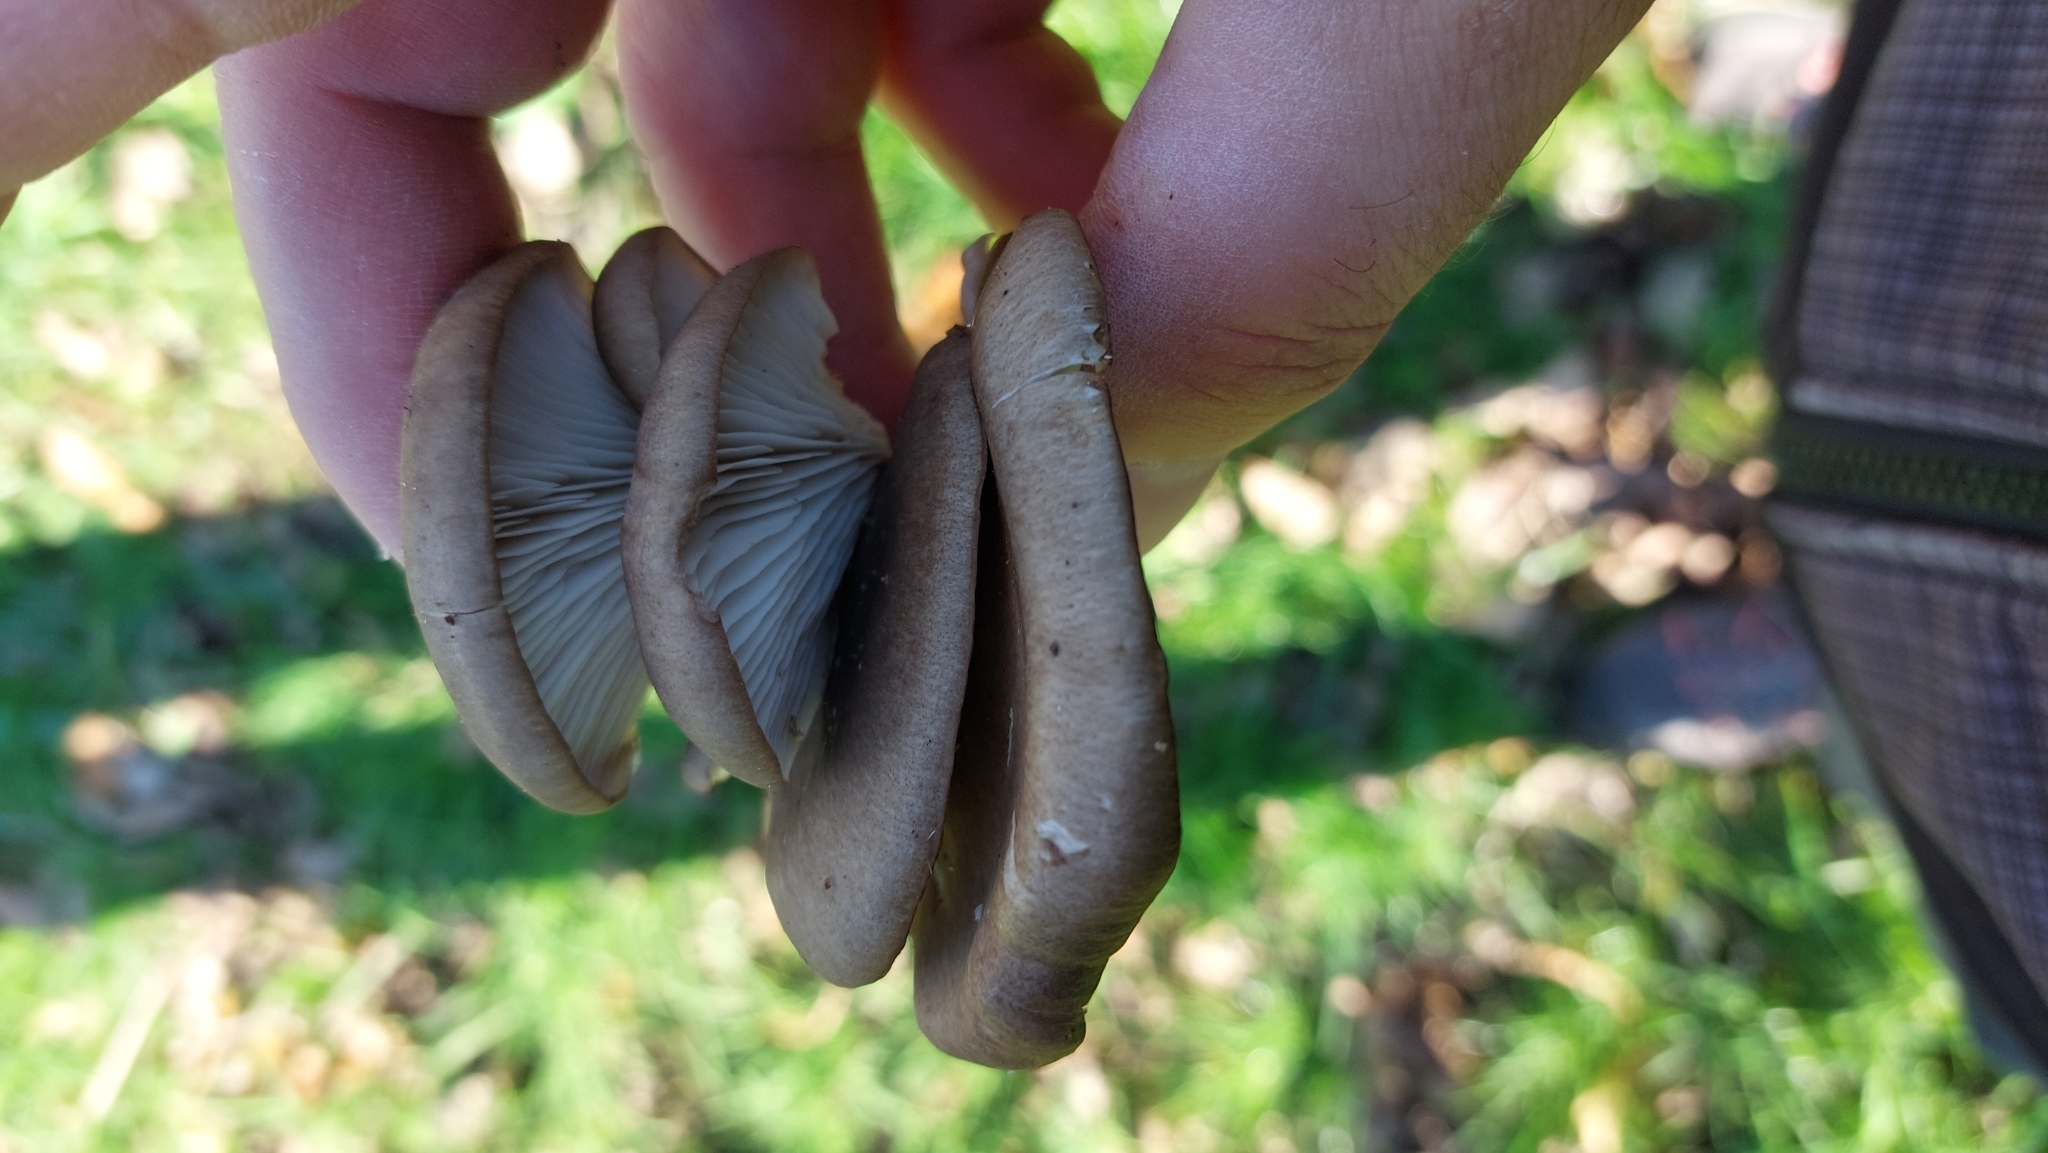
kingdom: Fungi
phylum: Basidiomycota
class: Agaricomycetes
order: Agaricales
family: Pleurotaceae
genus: Pleurotus
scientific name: Pleurotus ostreatus
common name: Oyster mushroom
